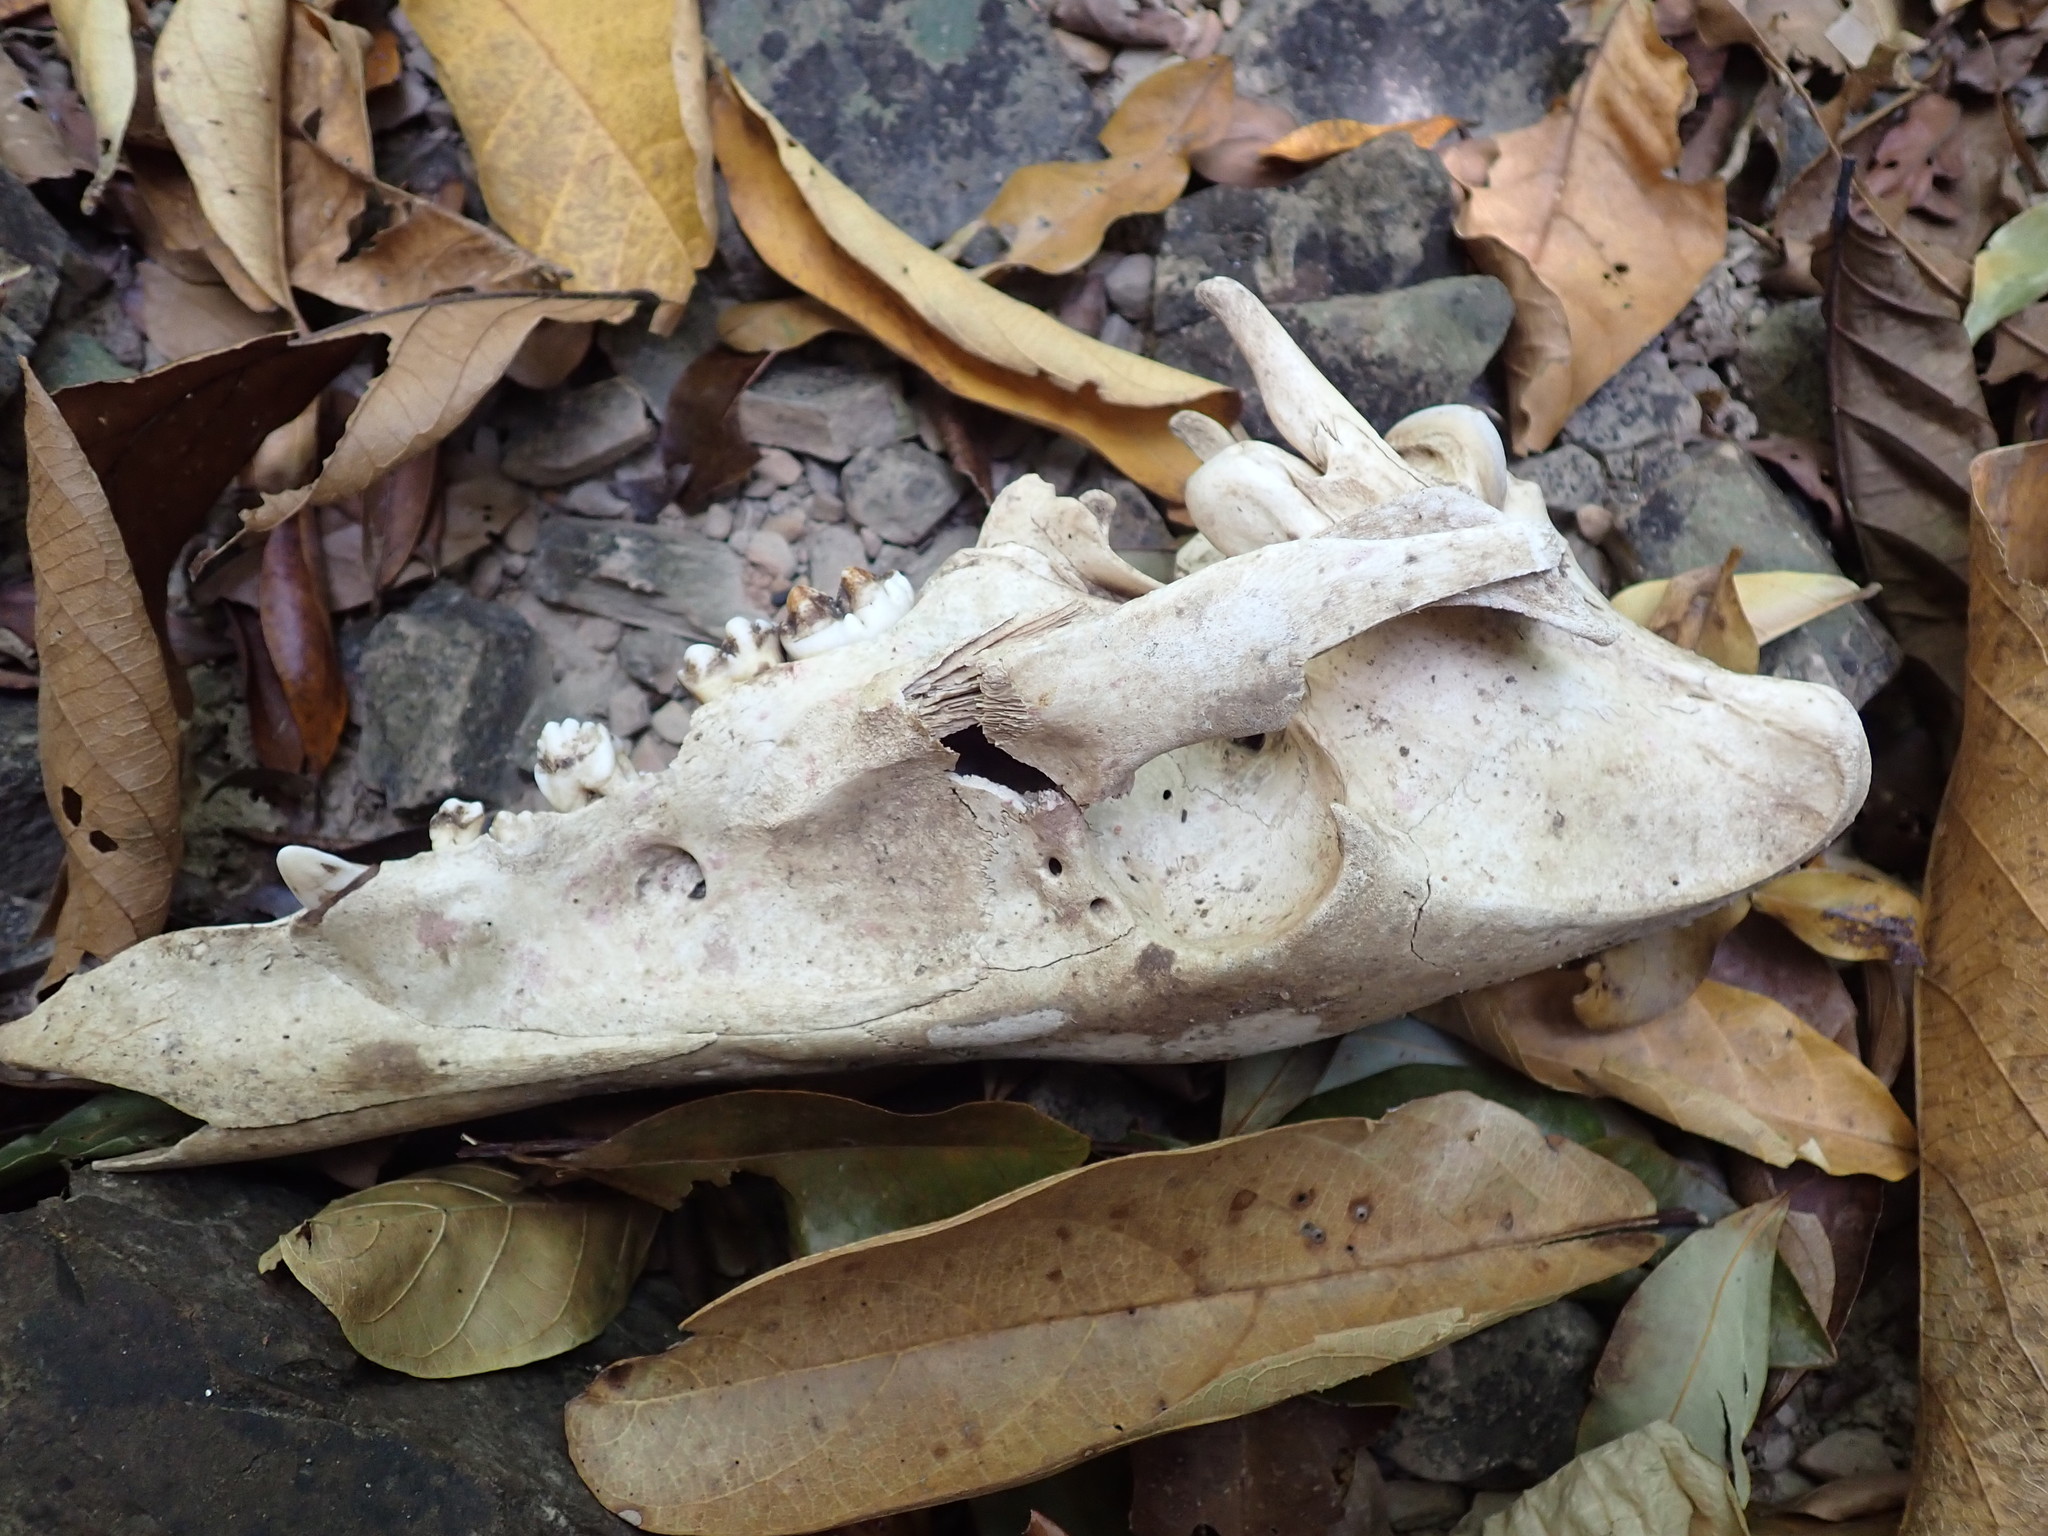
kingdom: Animalia
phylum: Chordata
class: Mammalia
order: Artiodactyla
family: Suidae
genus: Sus
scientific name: Sus scrofa
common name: Wild boar
